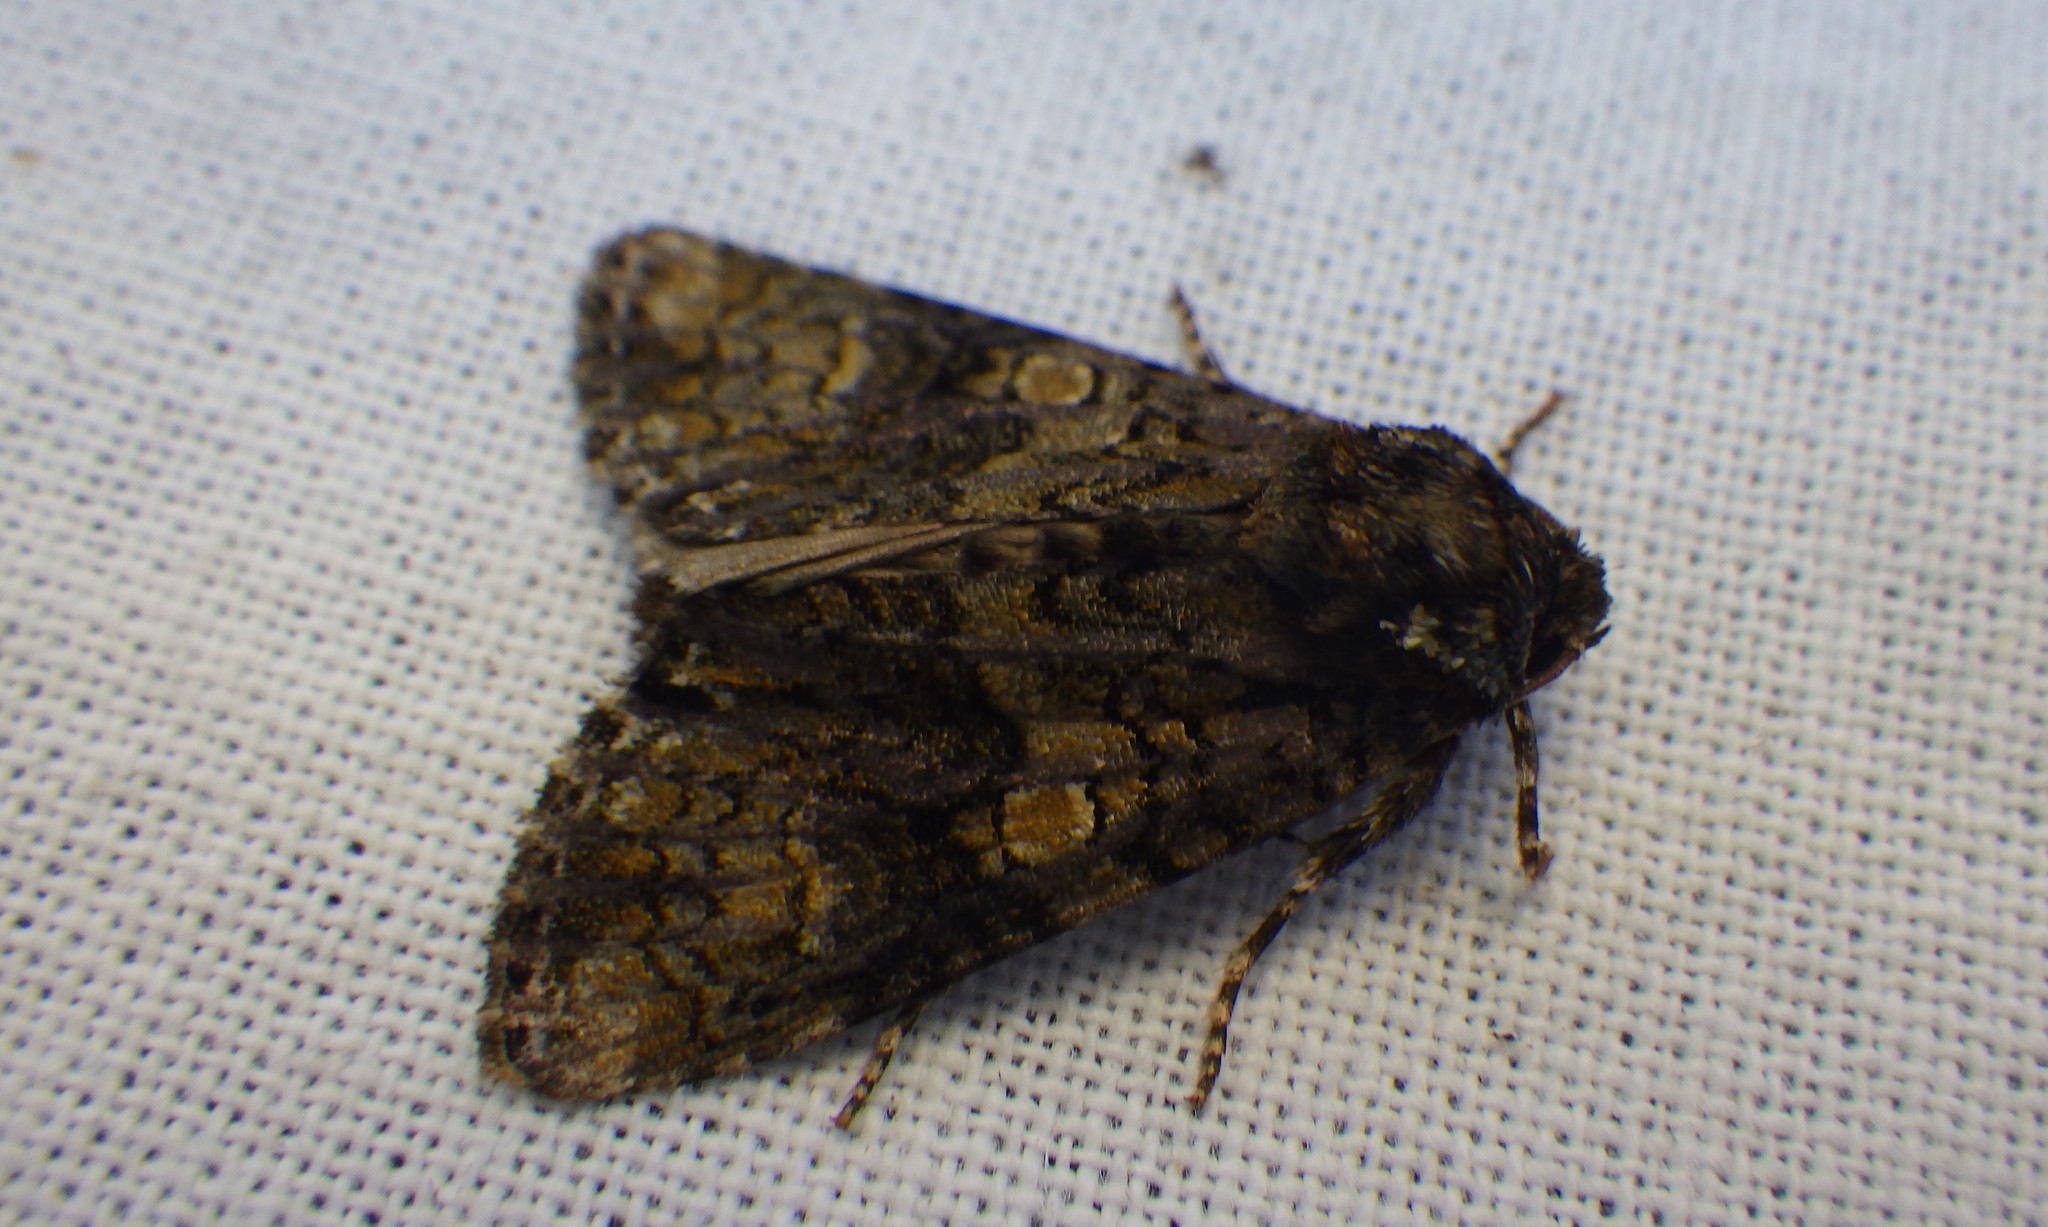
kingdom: Animalia
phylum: Arthropoda
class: Insecta
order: Lepidoptera
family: Noctuidae
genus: Craniophora
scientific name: Craniophora ligustri
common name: Coronet
